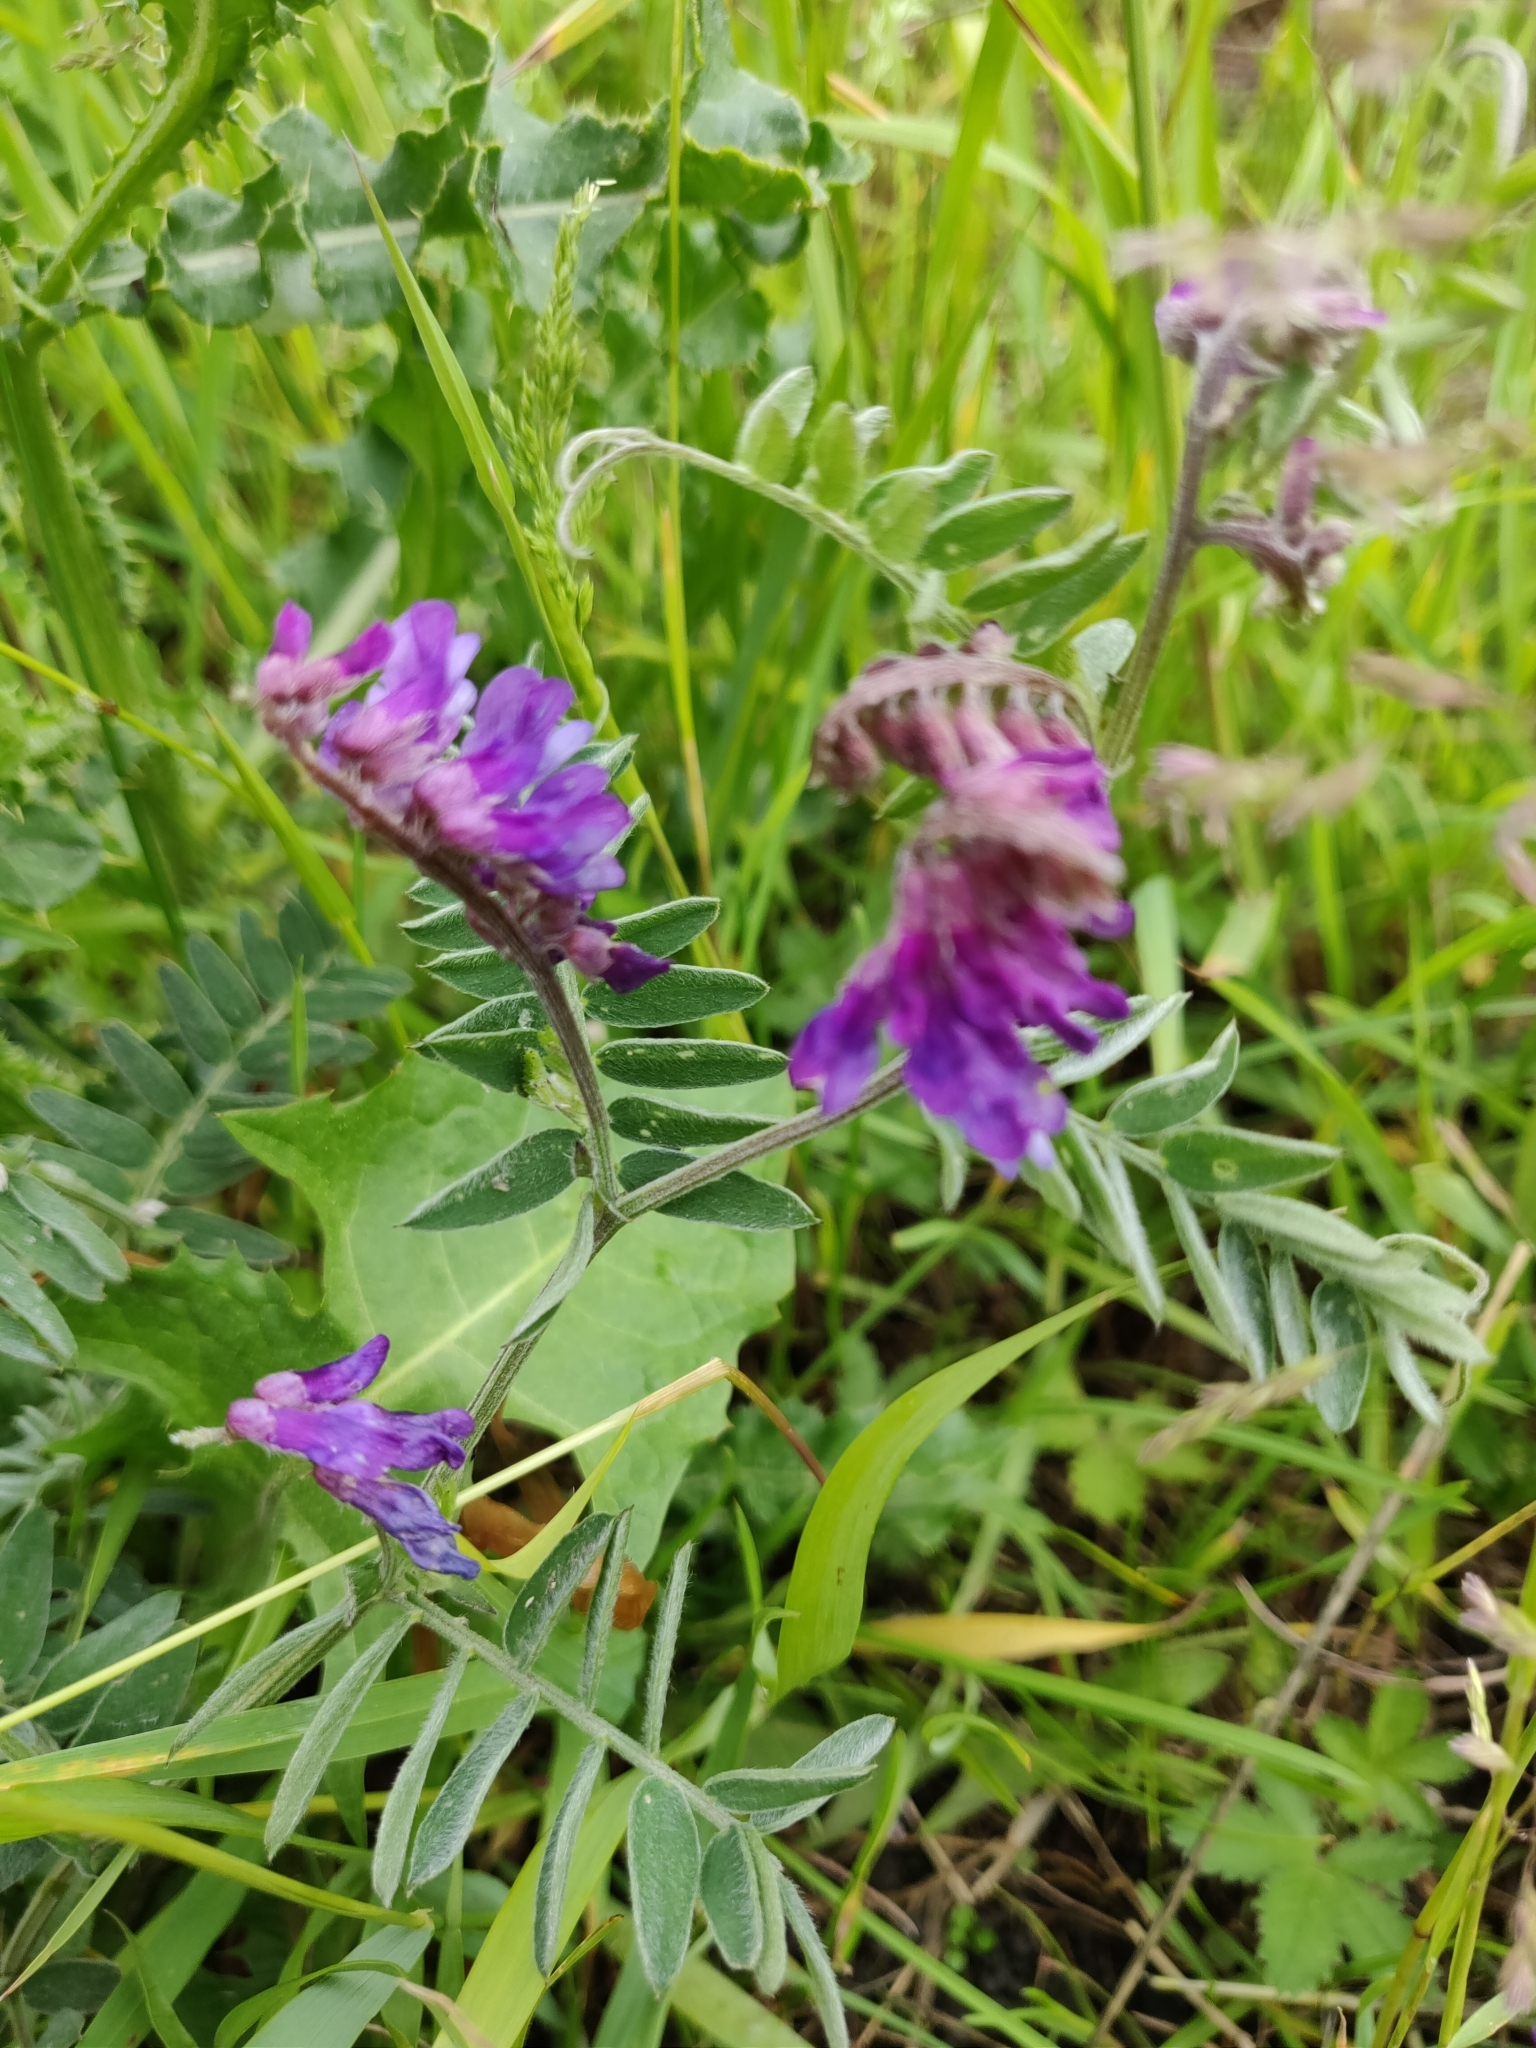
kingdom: Plantae
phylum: Tracheophyta
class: Magnoliopsida
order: Fabales
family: Fabaceae
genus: Vicia
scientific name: Vicia cracca
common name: Bird vetch
